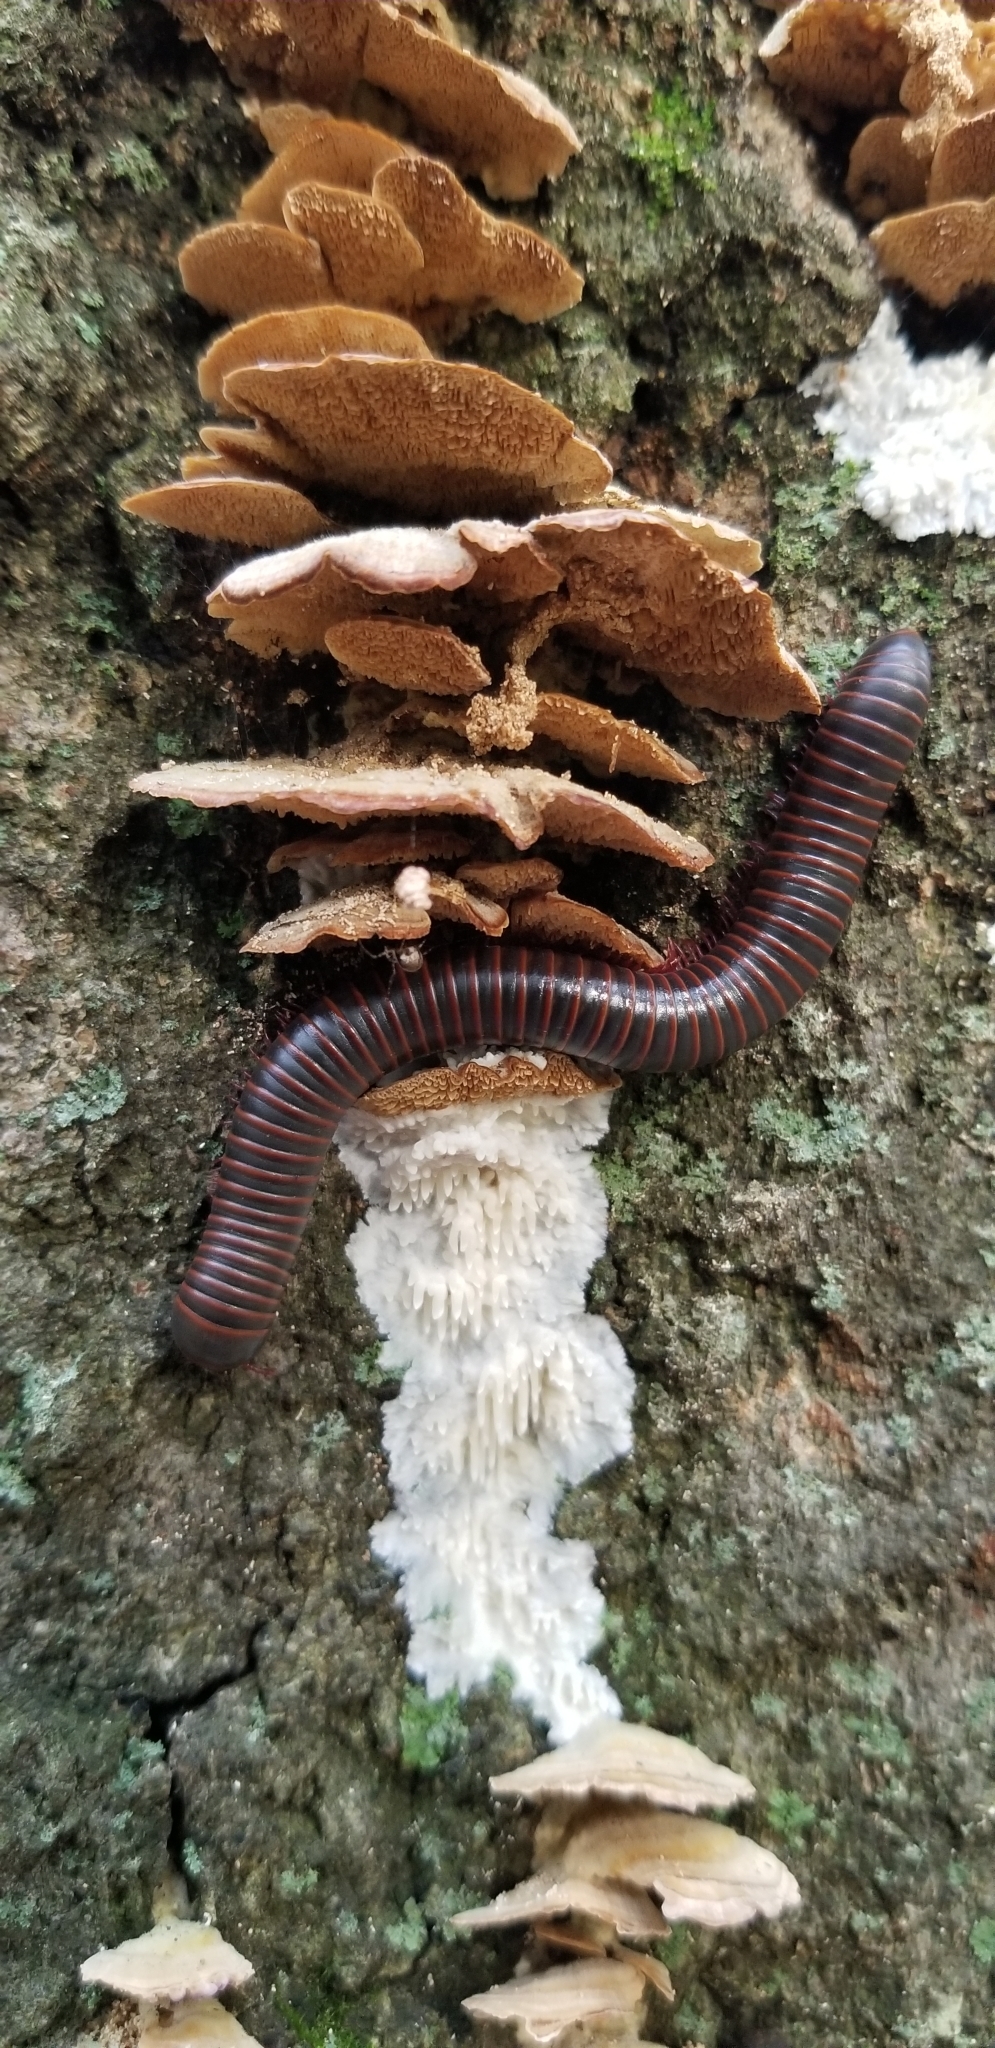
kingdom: Animalia
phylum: Arthropoda
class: Diplopoda
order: Spirobolida
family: Spirobolidae
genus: Narceus
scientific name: Narceus
